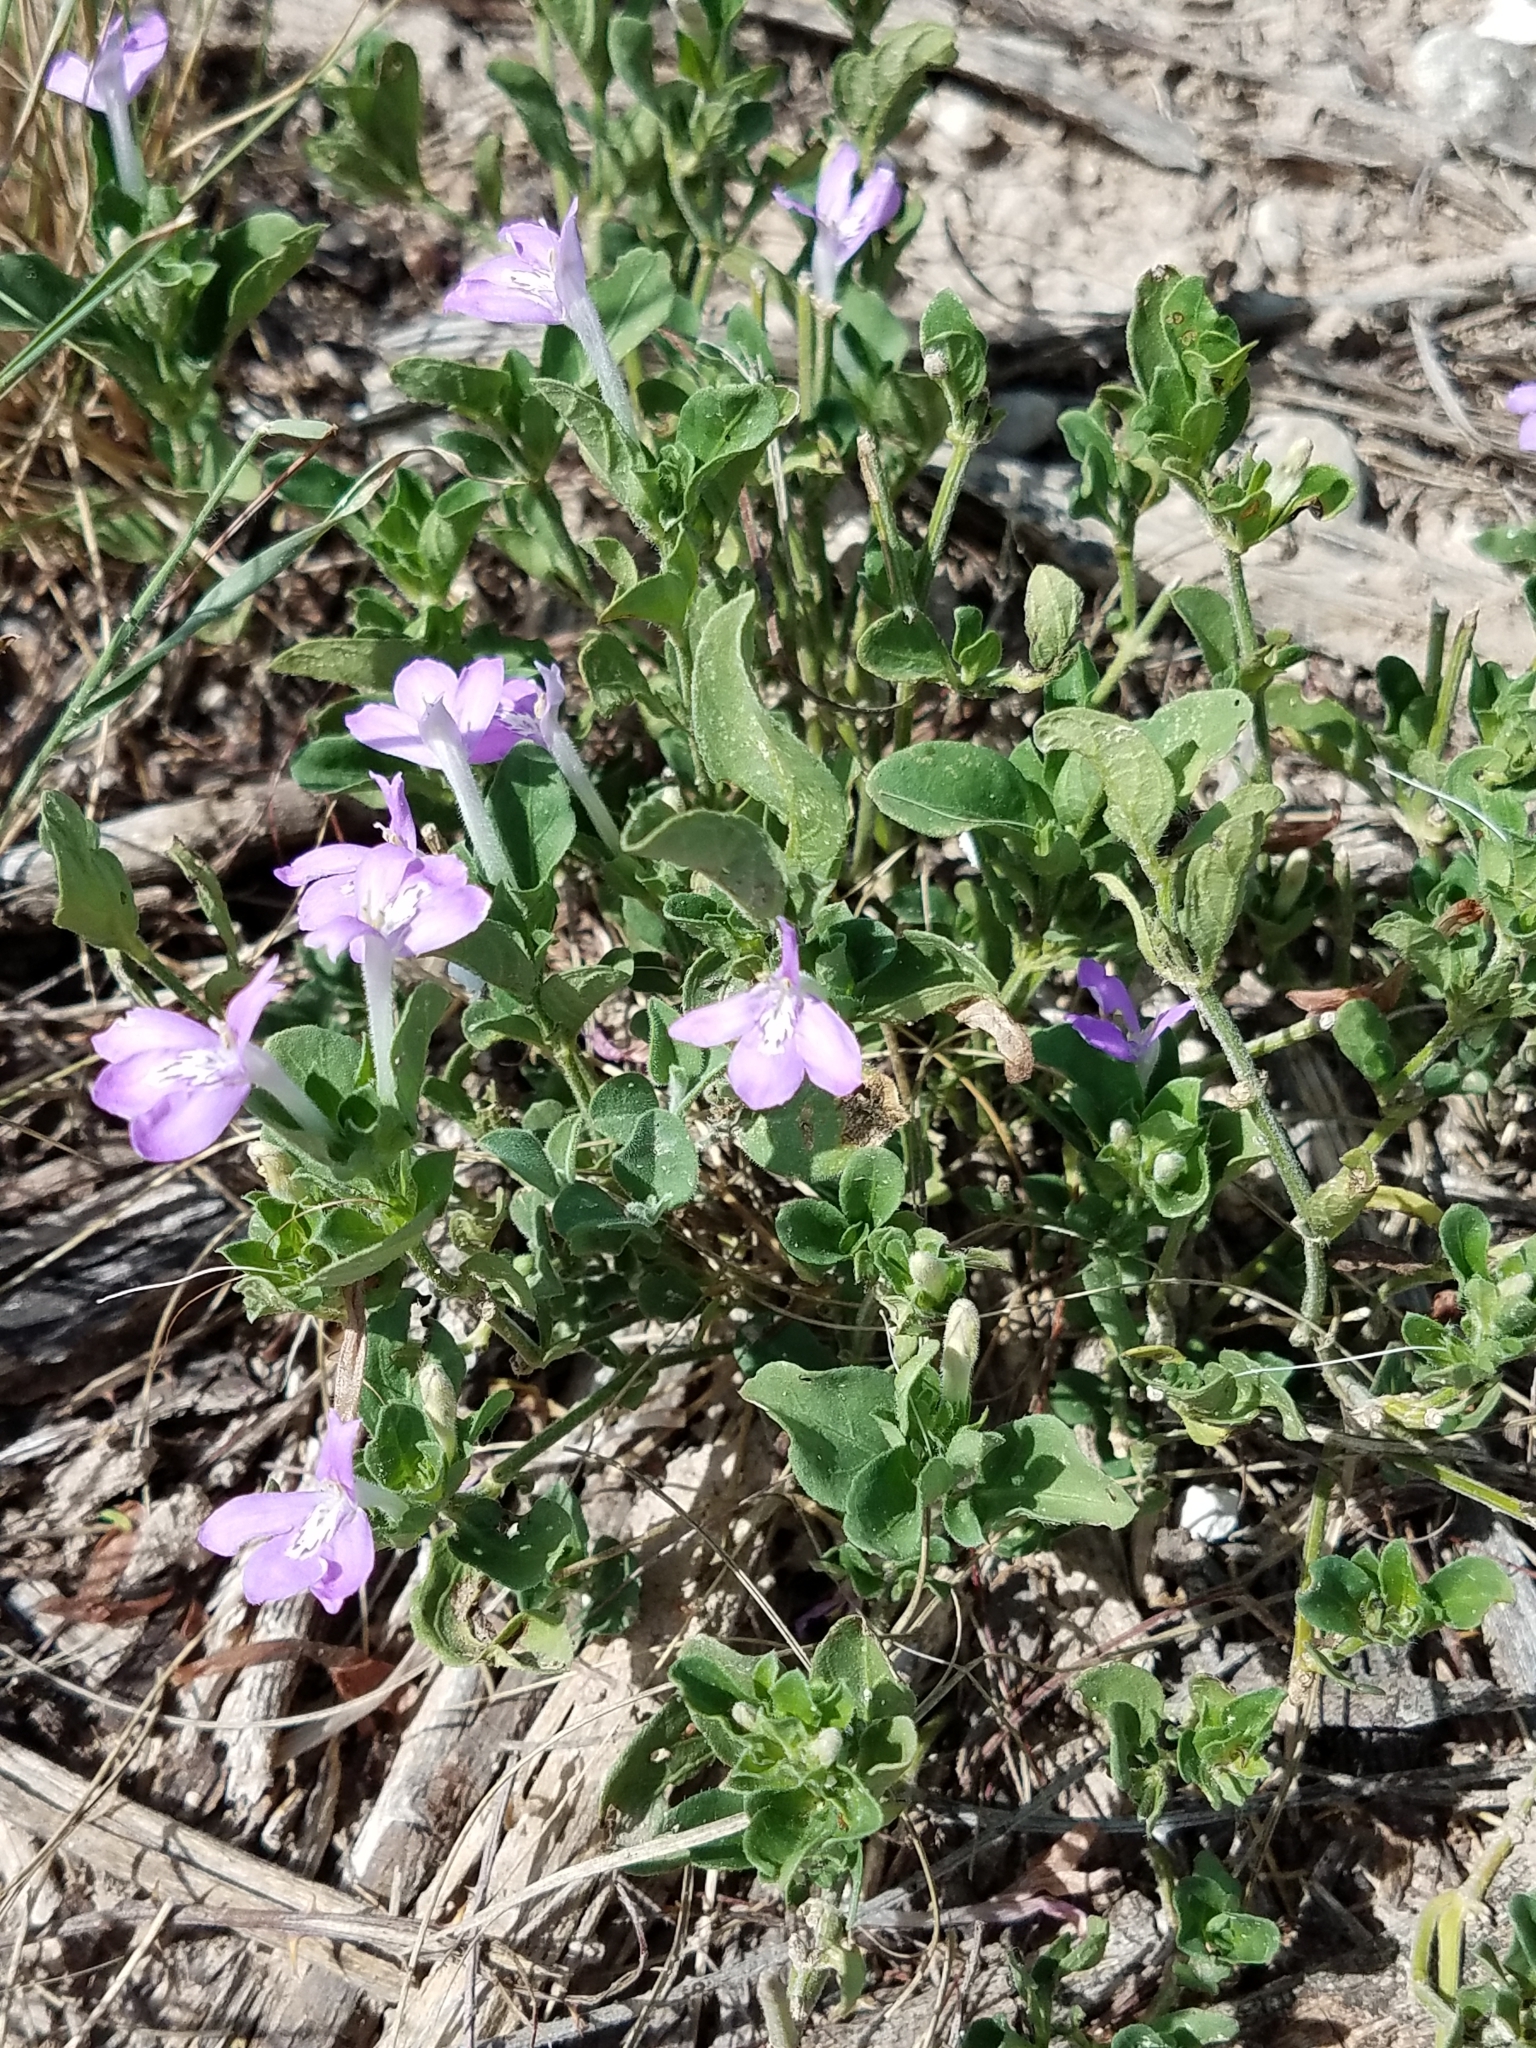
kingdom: Plantae
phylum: Tracheophyta
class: Magnoliopsida
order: Lamiales
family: Acanthaceae
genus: Justicia
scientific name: Justicia pilosella
